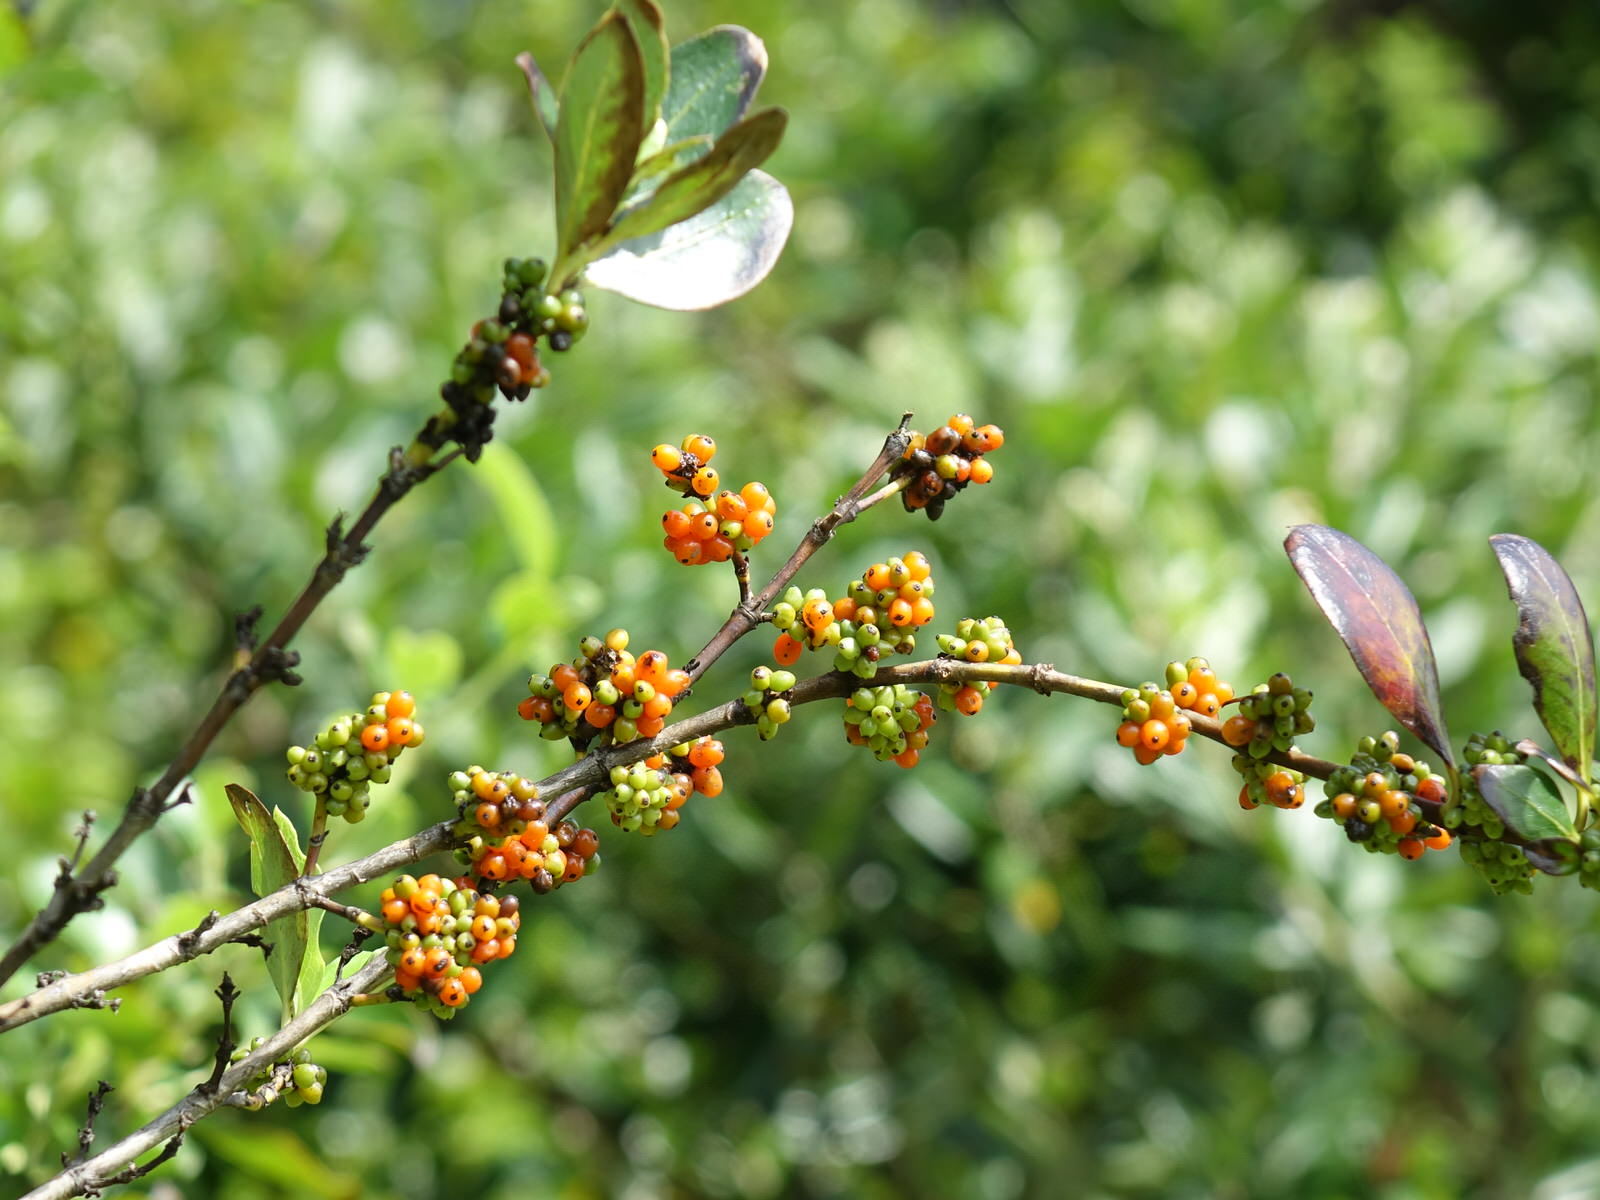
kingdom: Plantae
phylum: Tracheophyta
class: Magnoliopsida
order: Gentianales
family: Rubiaceae
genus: Coprosma
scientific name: Coprosma robusta
